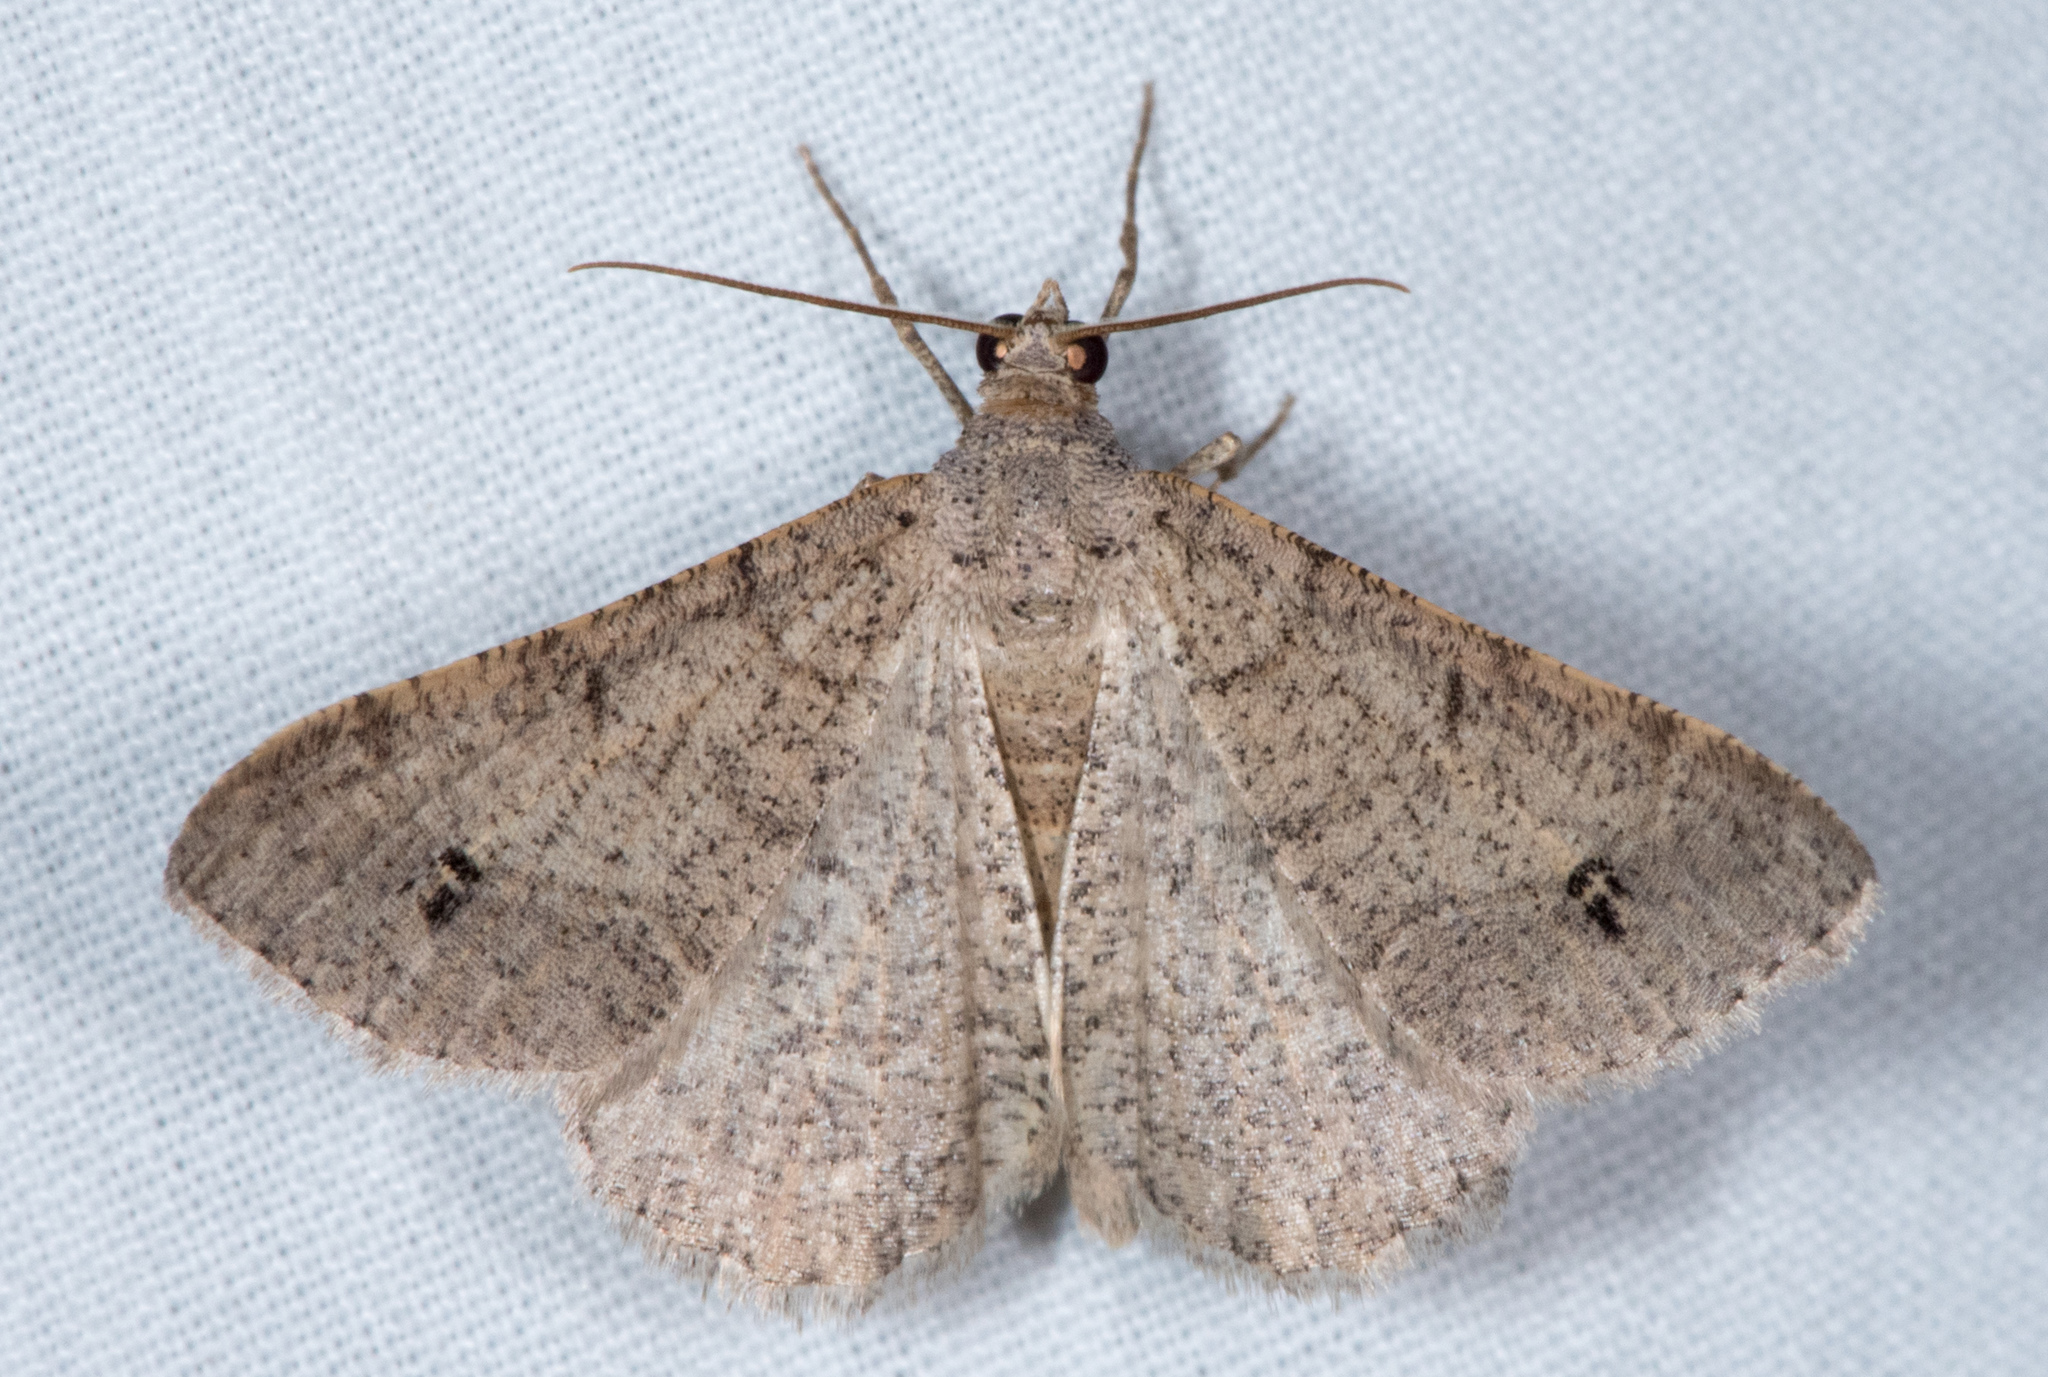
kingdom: Animalia
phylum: Arthropoda
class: Insecta
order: Lepidoptera
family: Geometridae
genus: Digrammia
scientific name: Digrammia muscariata
